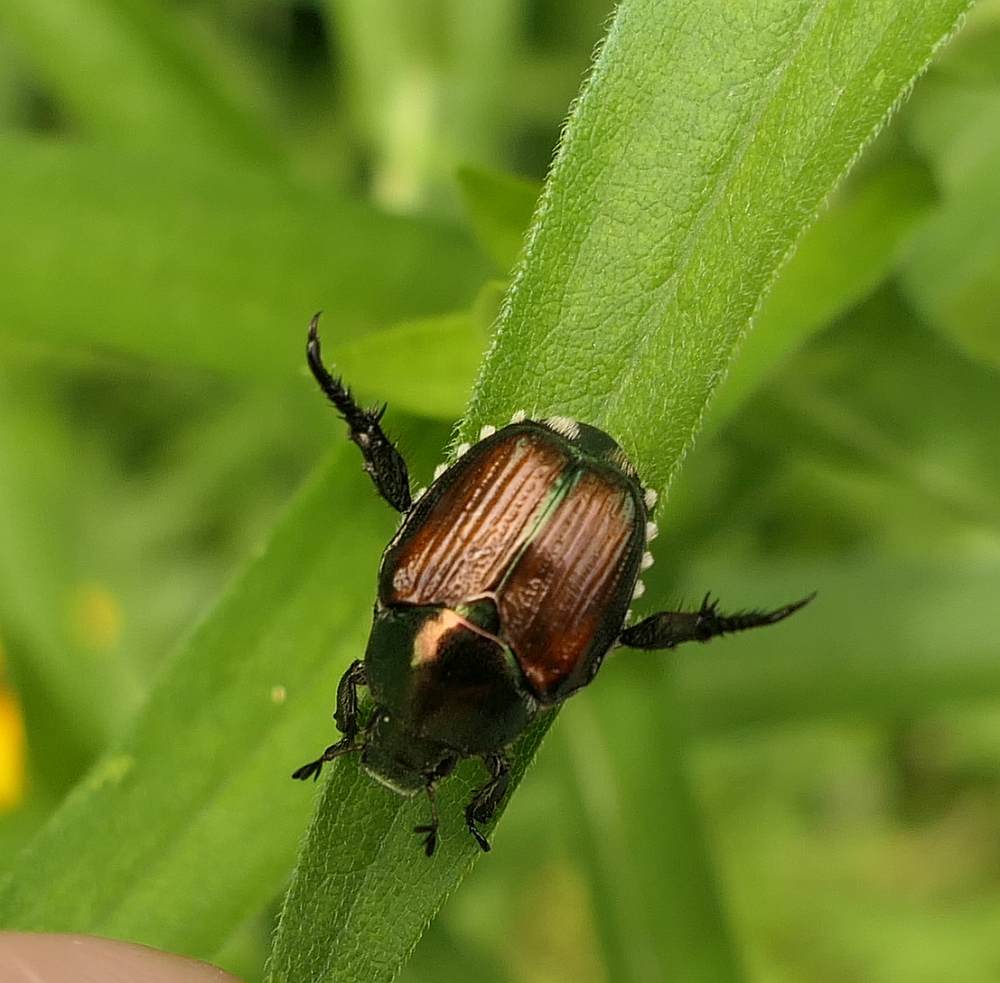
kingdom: Animalia
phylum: Arthropoda
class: Insecta
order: Coleoptera
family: Scarabaeidae
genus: Popillia
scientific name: Popillia japonica
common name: Japanese beetle
